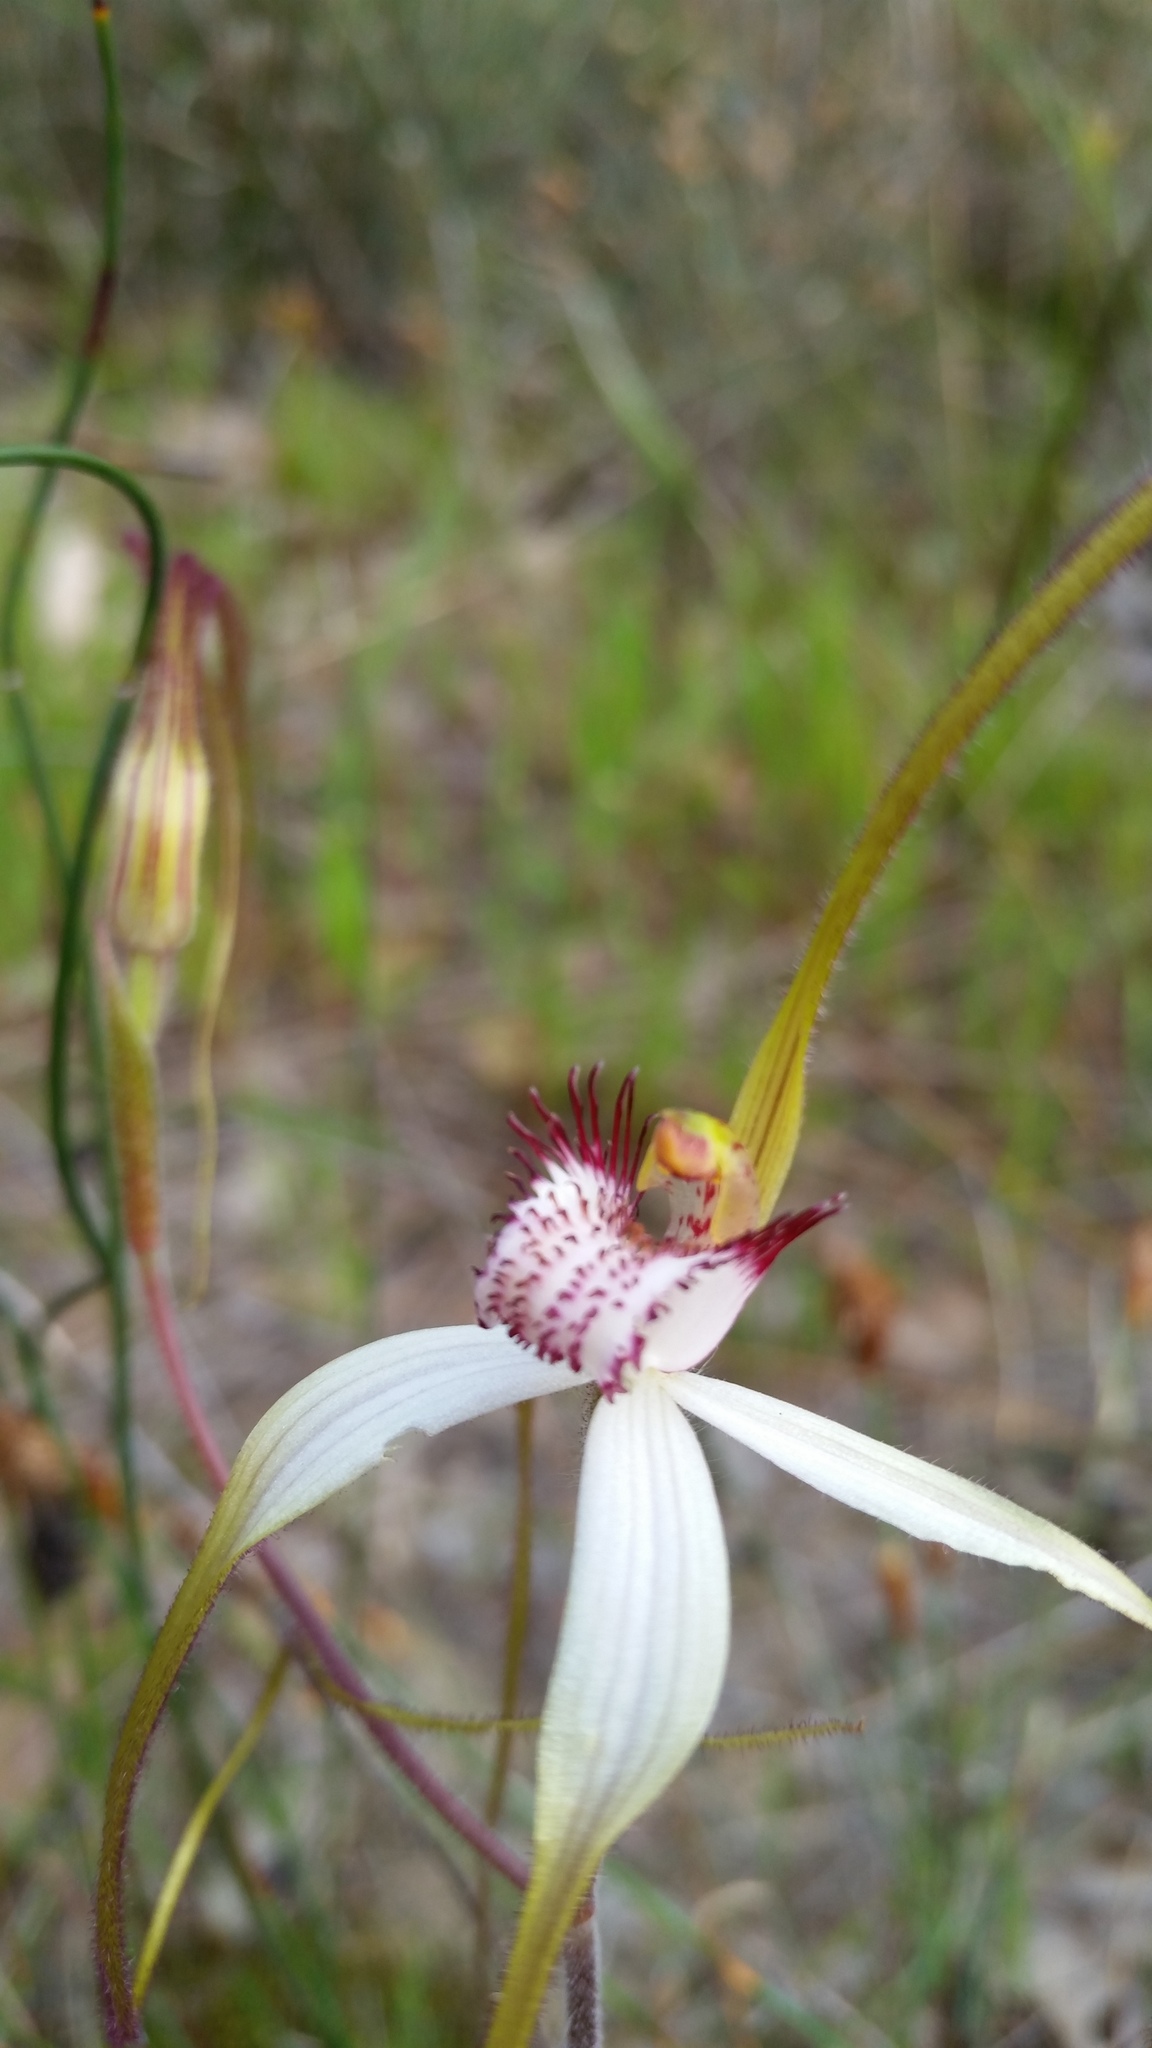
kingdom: Plantae
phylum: Tracheophyta
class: Liliopsida
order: Asparagales
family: Orchidaceae
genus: Caladenia
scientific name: Caladenia longicauda
